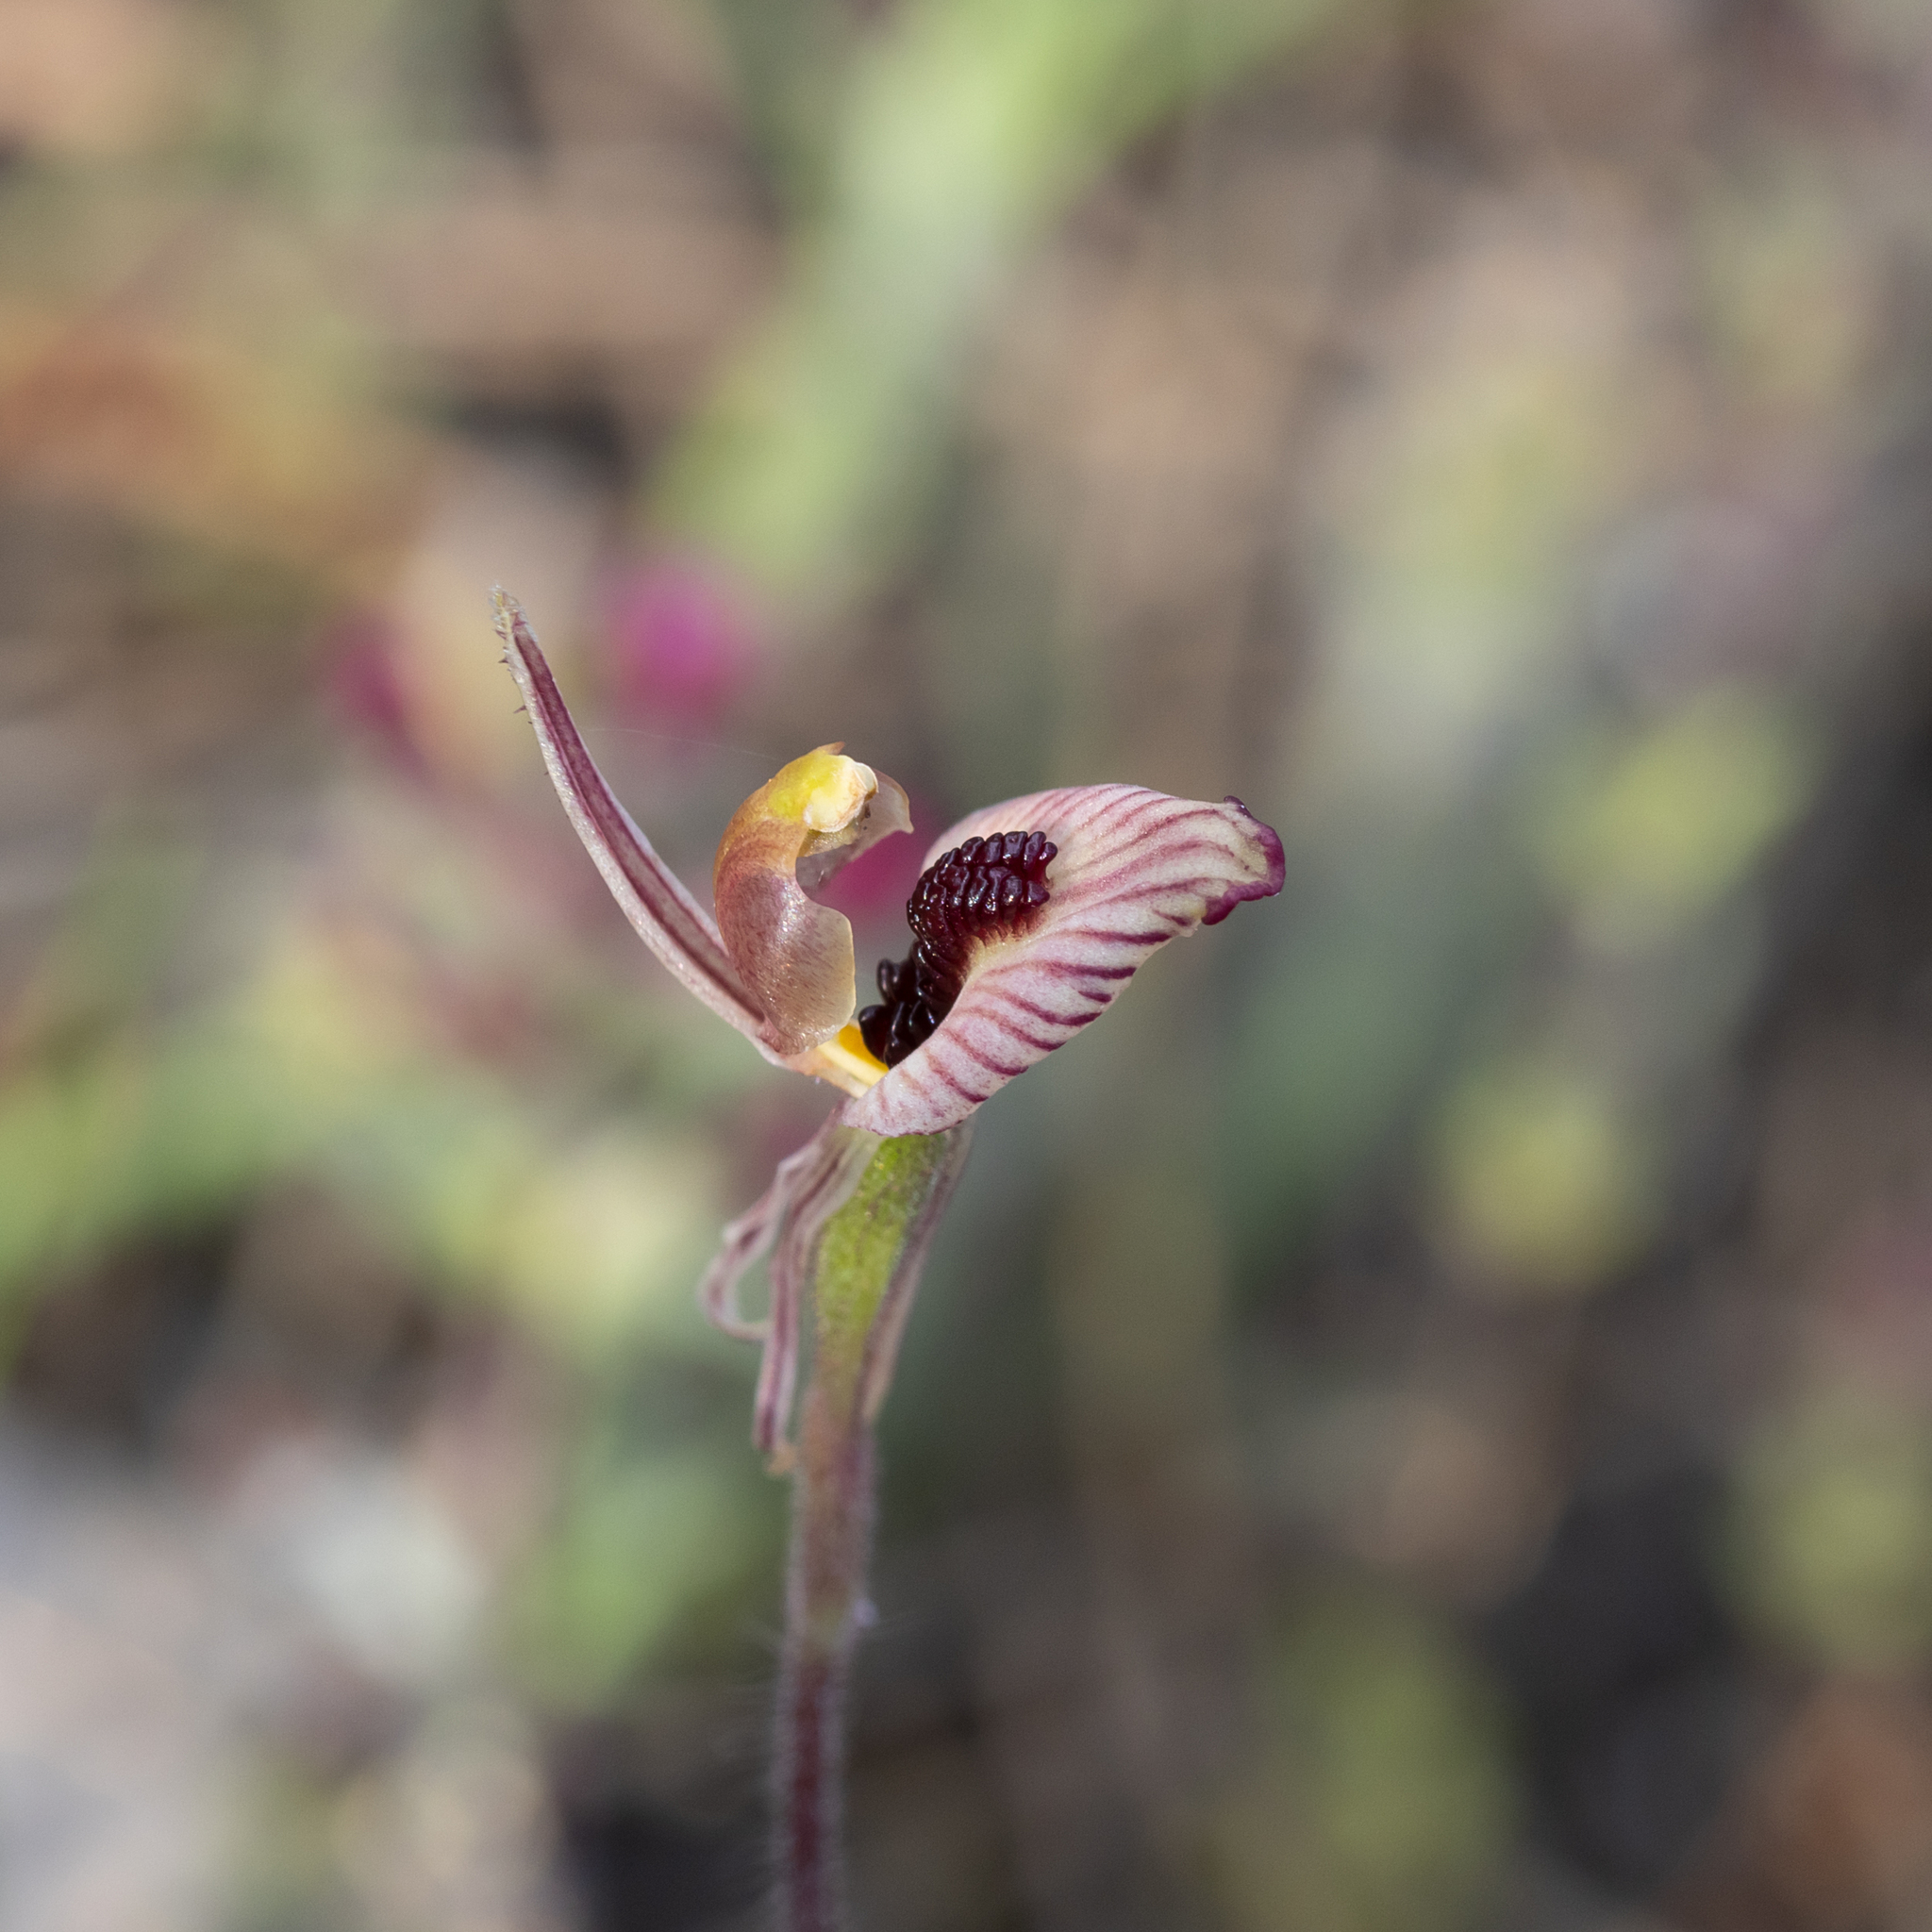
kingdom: Plantae
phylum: Tracheophyta
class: Liliopsida
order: Asparagales
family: Orchidaceae
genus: Caladenia
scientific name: Caladenia cairnsiana
